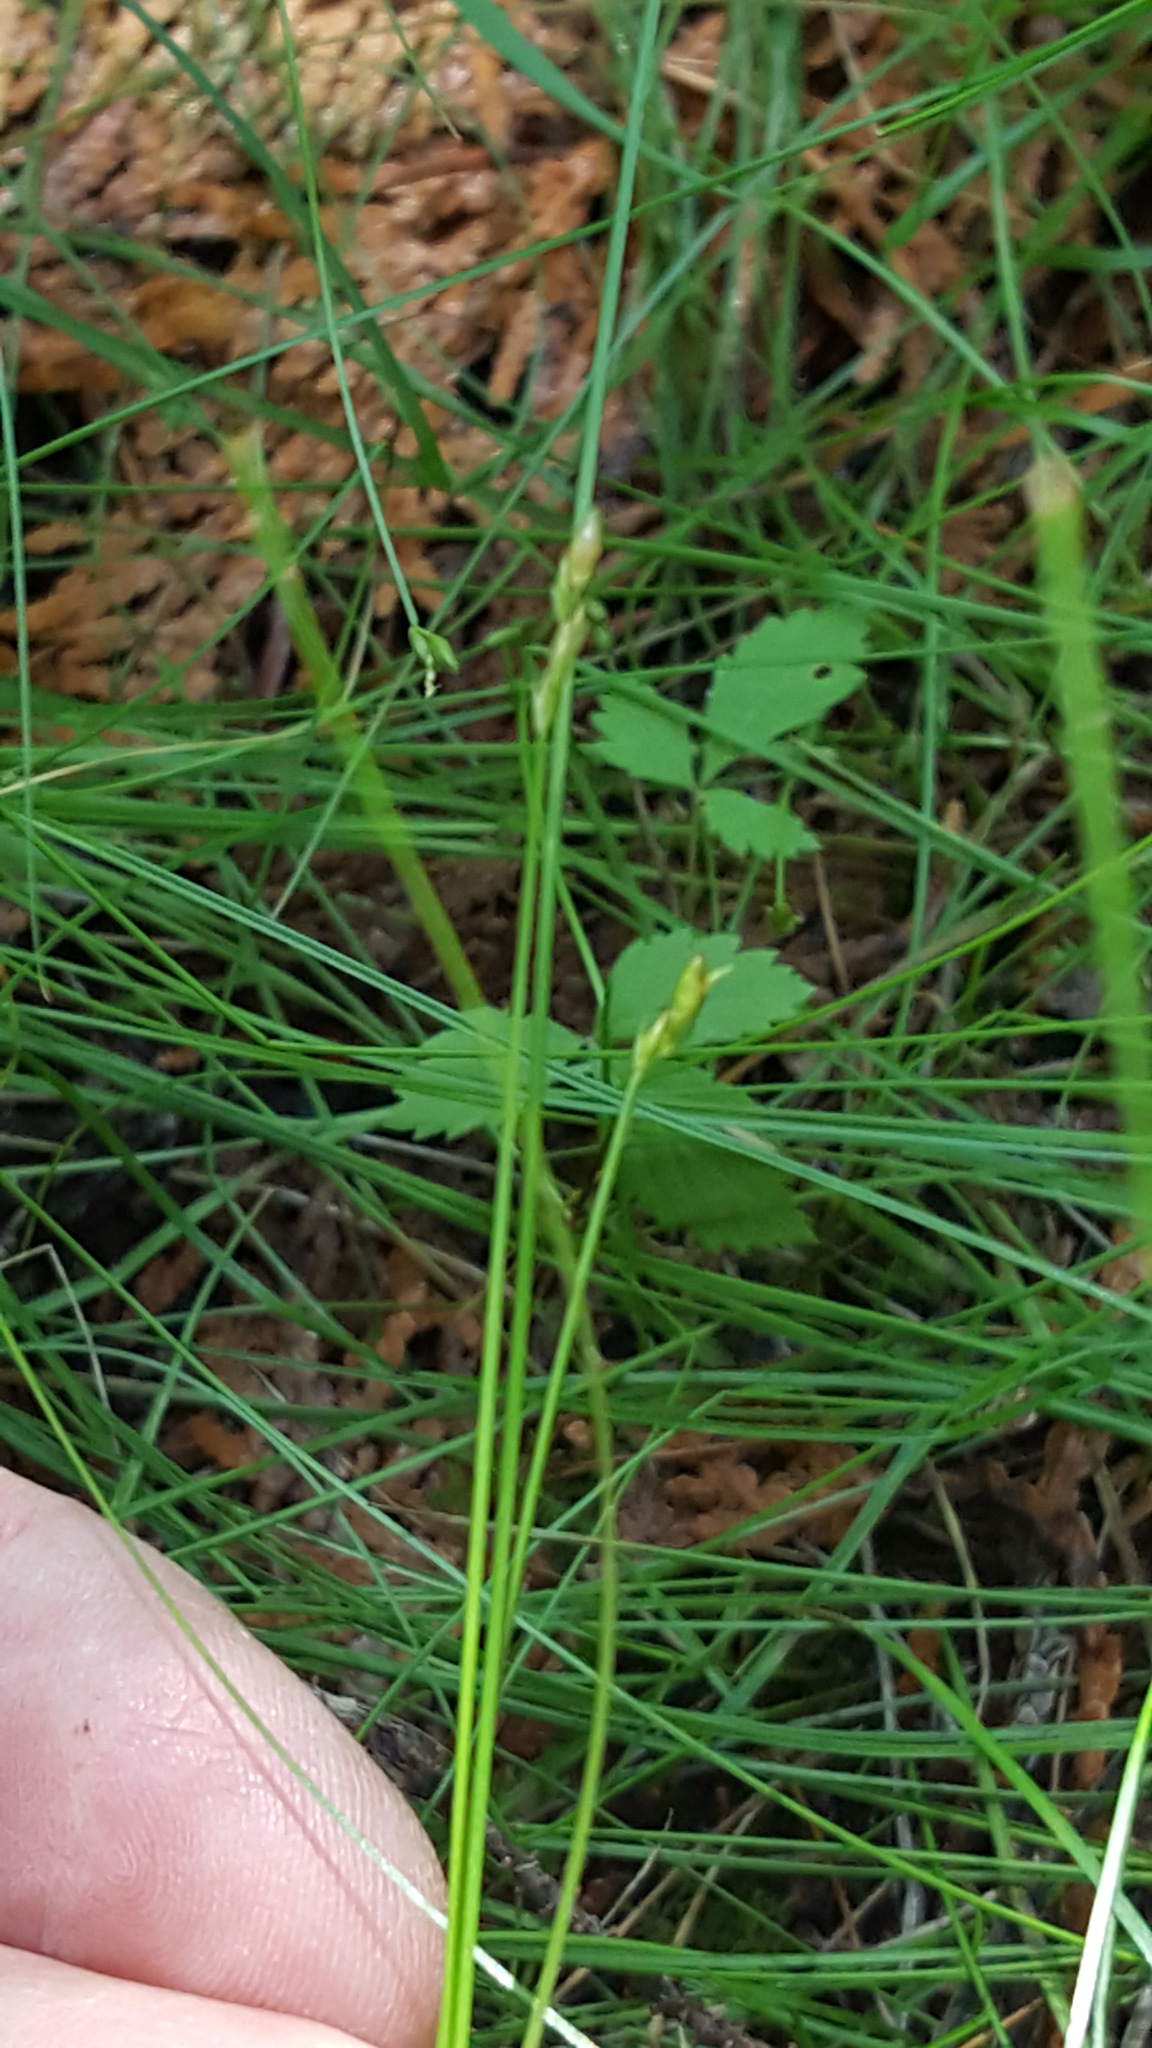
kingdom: Plantae
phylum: Tracheophyta
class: Liliopsida
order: Poales
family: Cyperaceae
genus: Carex
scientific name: Carex leptalea
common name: Bristly-stalked sedge
